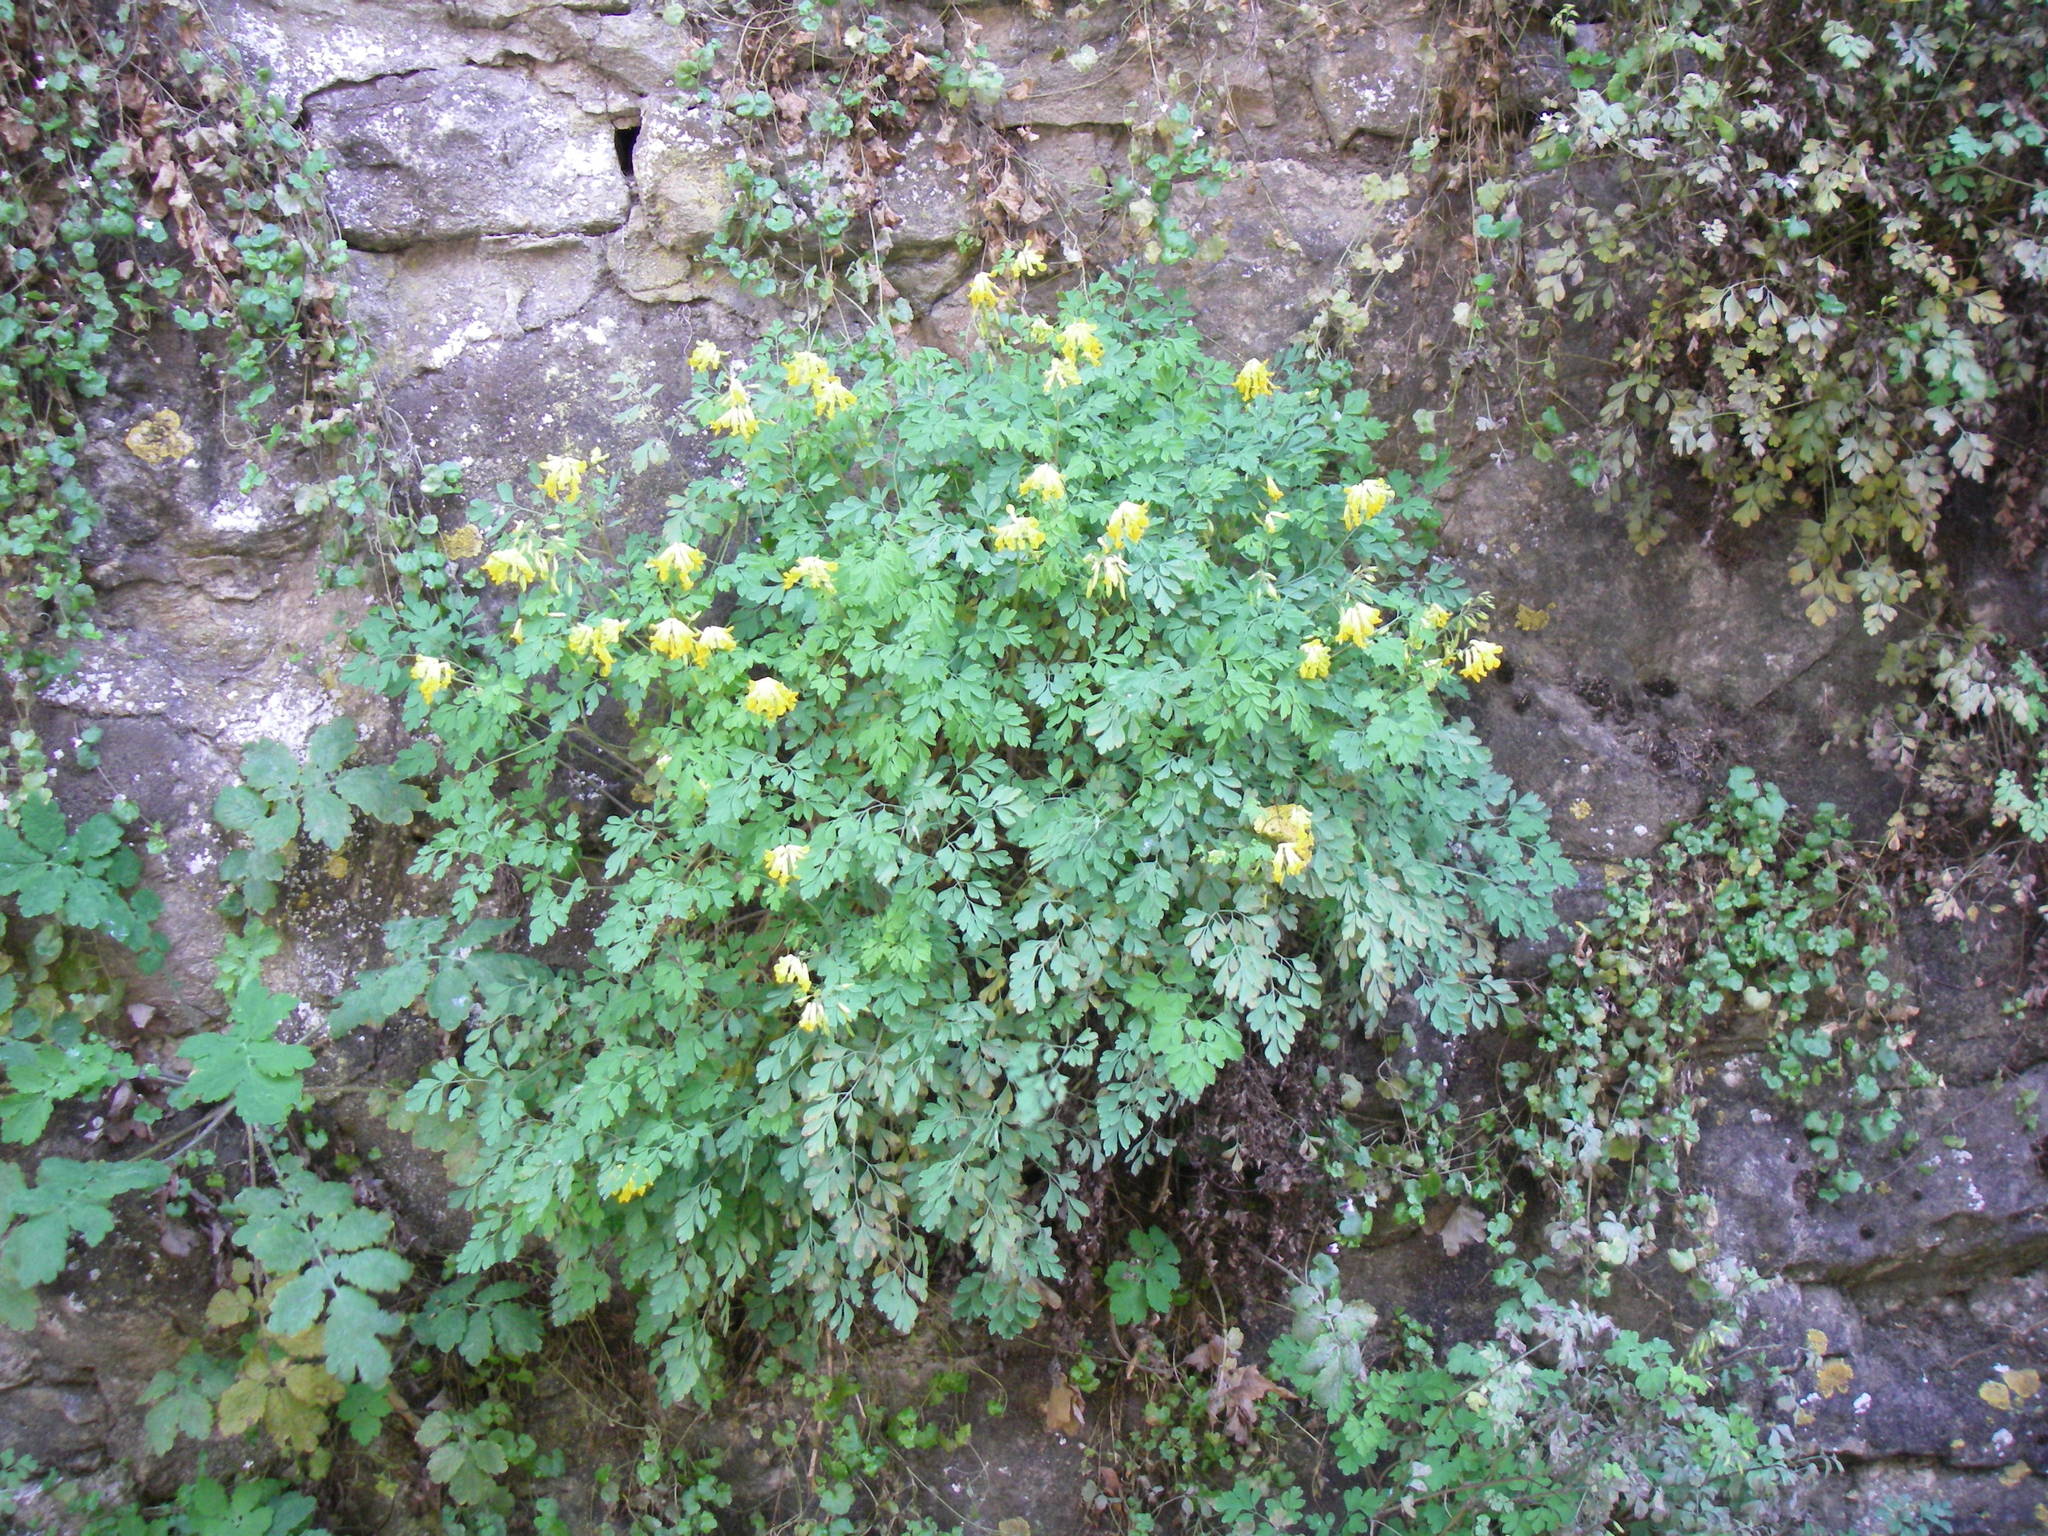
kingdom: Plantae
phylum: Tracheophyta
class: Magnoliopsida
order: Ranunculales
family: Papaveraceae
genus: Pseudofumaria
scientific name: Pseudofumaria lutea
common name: Yellow corydalis
